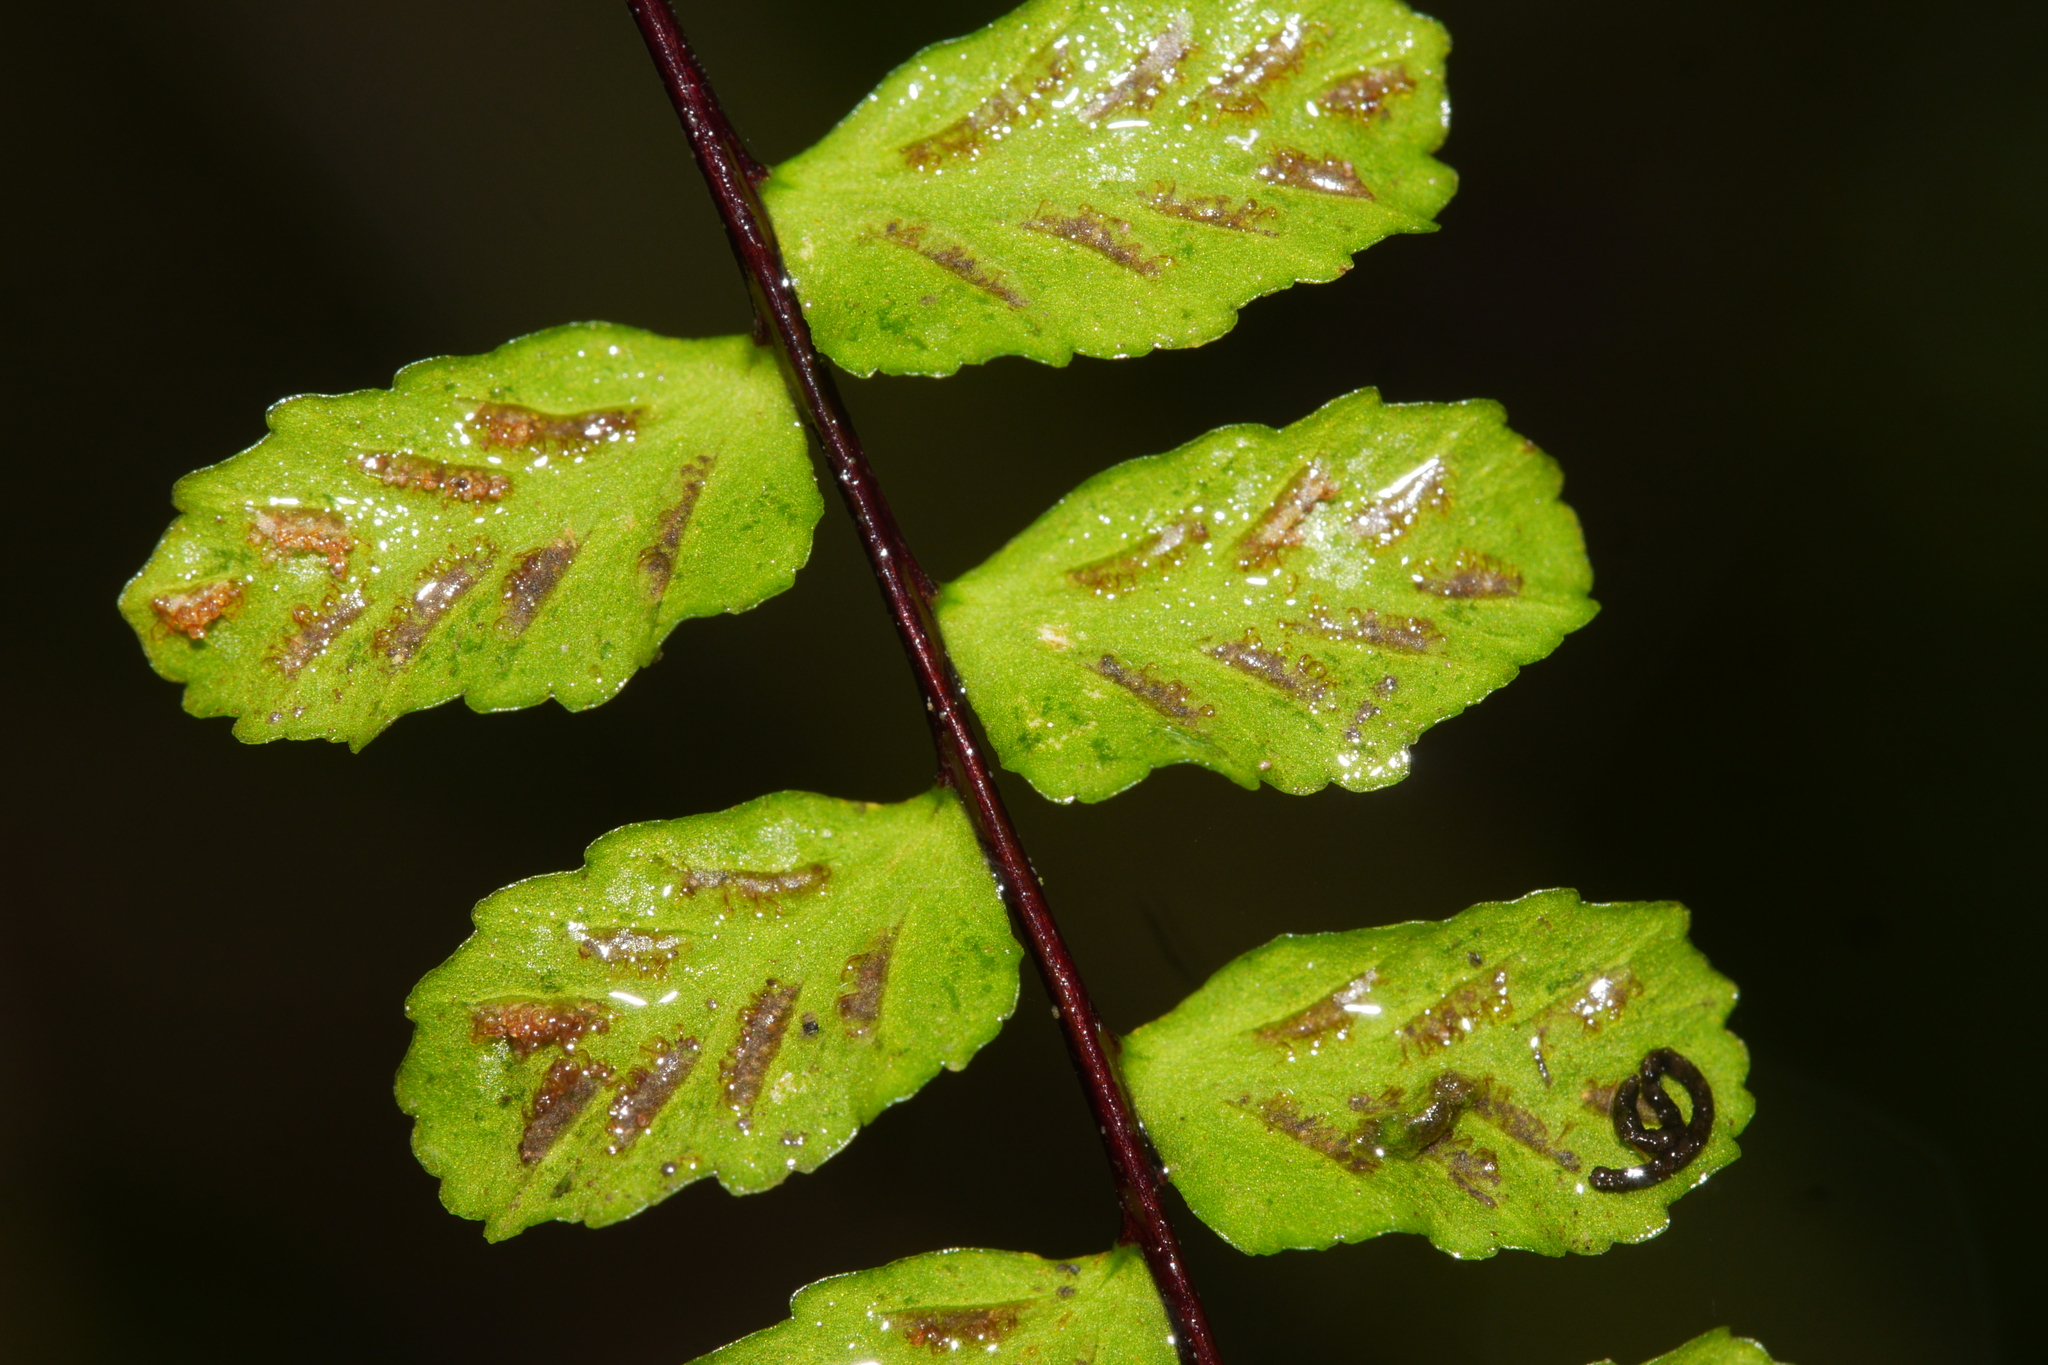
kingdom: Plantae
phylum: Tracheophyta
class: Polypodiopsida
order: Polypodiales
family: Aspleniaceae
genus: Asplenium
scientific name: Asplenium trichomanes
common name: Maidenhair spleenwort
